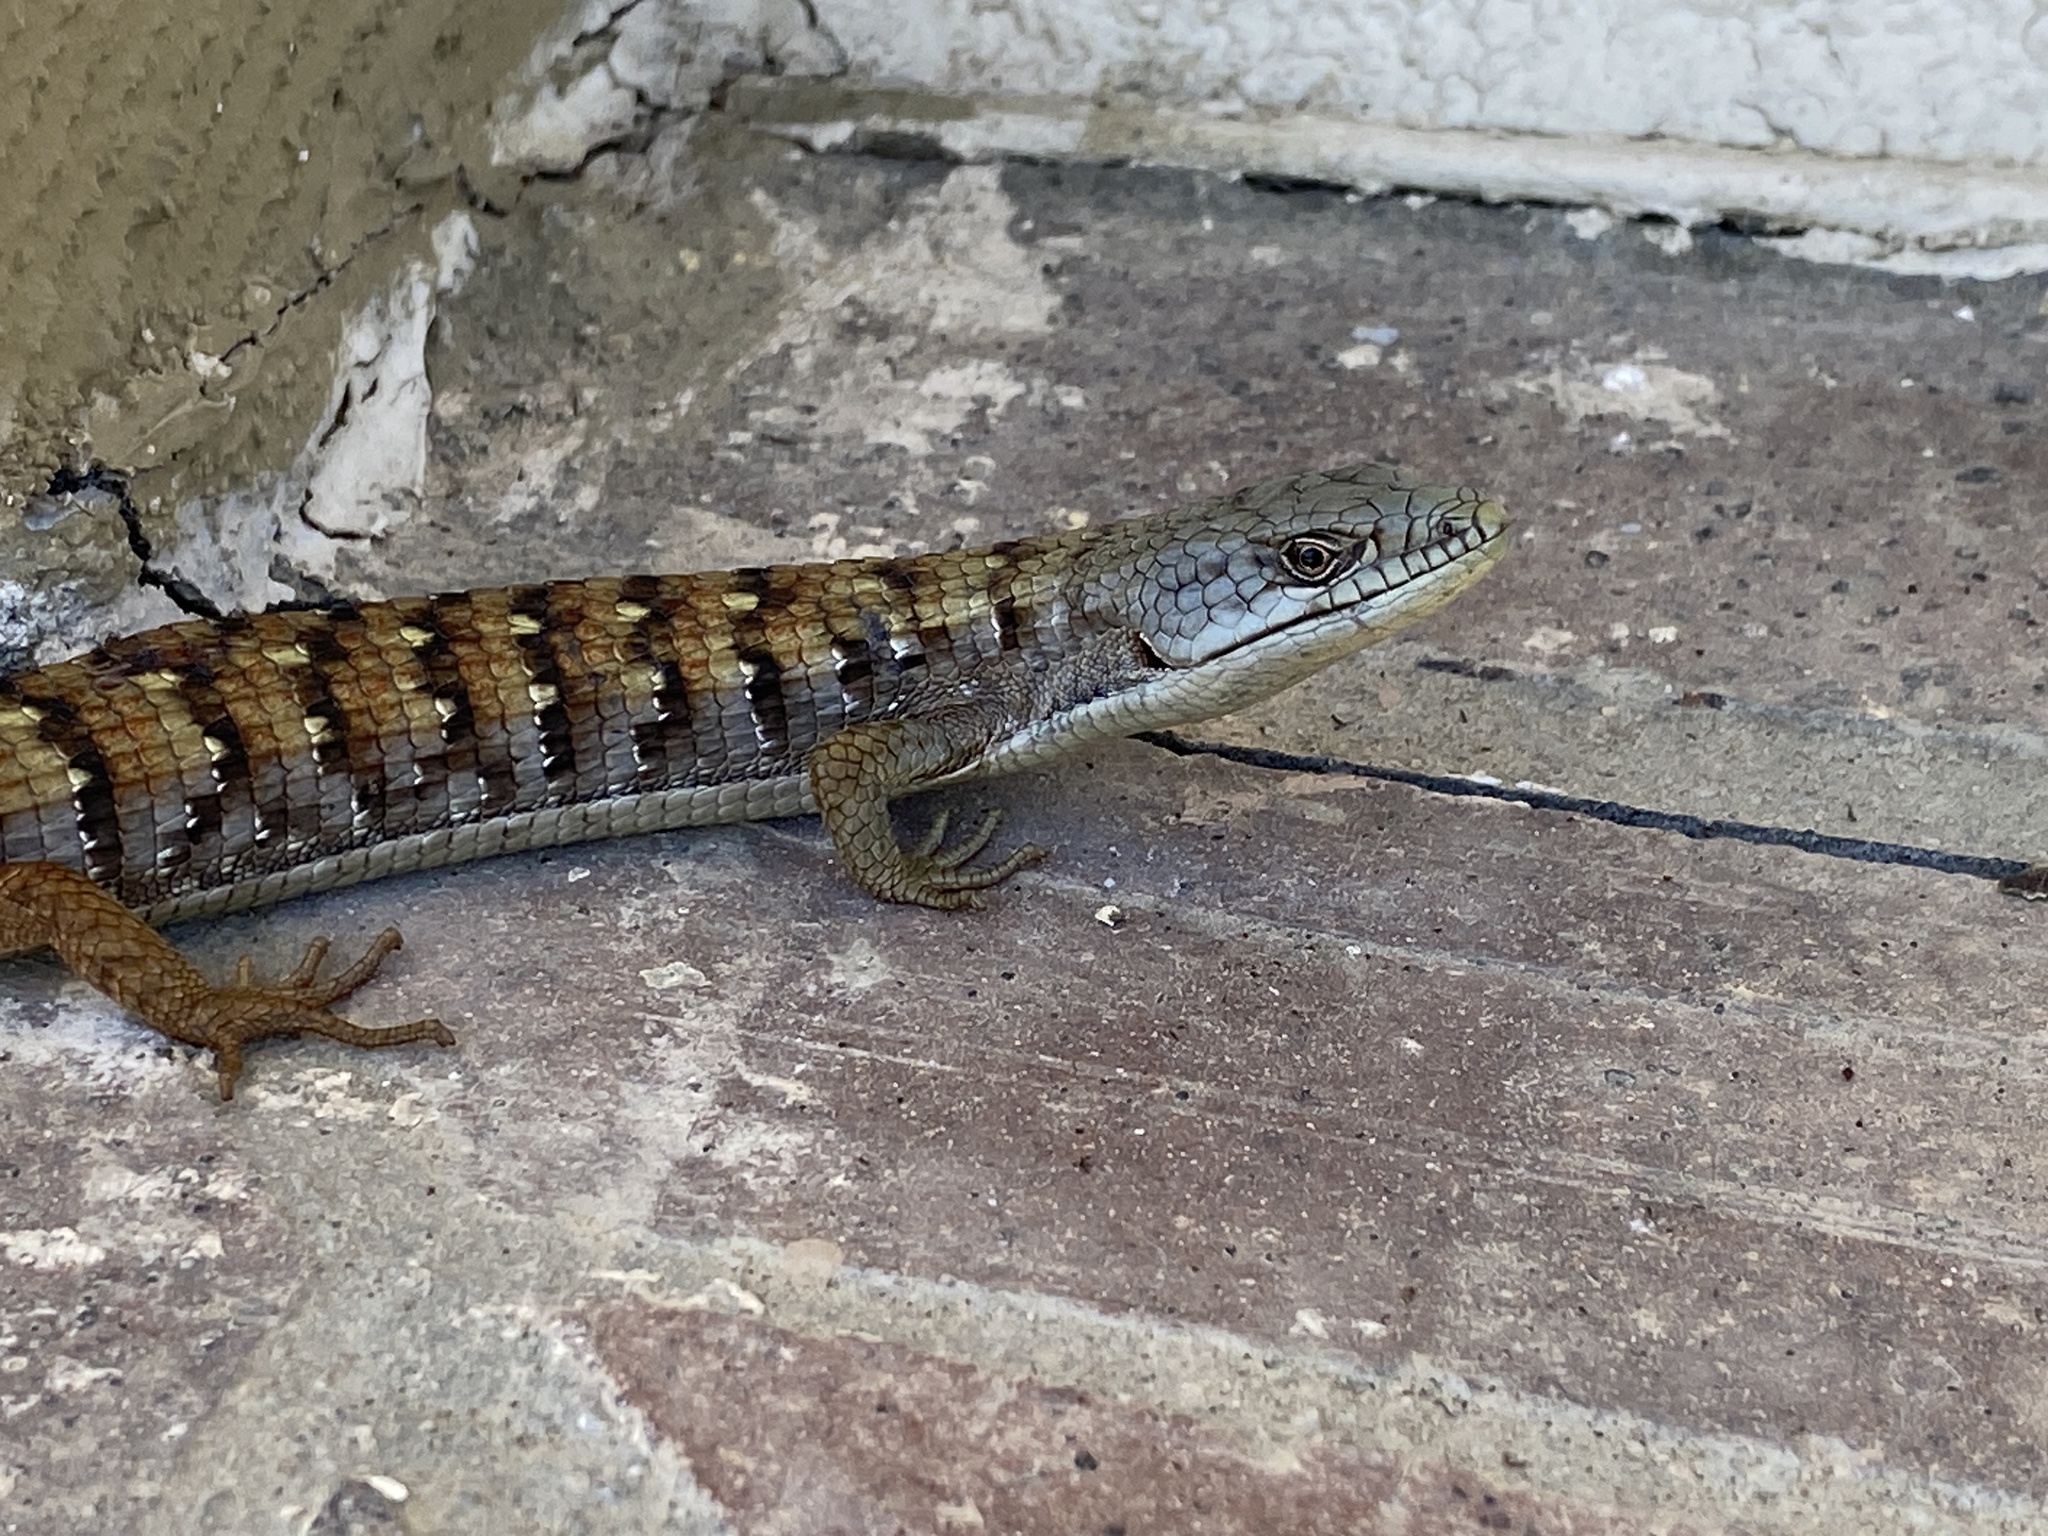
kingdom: Animalia
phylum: Chordata
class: Squamata
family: Anguidae
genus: Elgaria
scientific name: Elgaria multicarinata
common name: Southern alligator lizard
